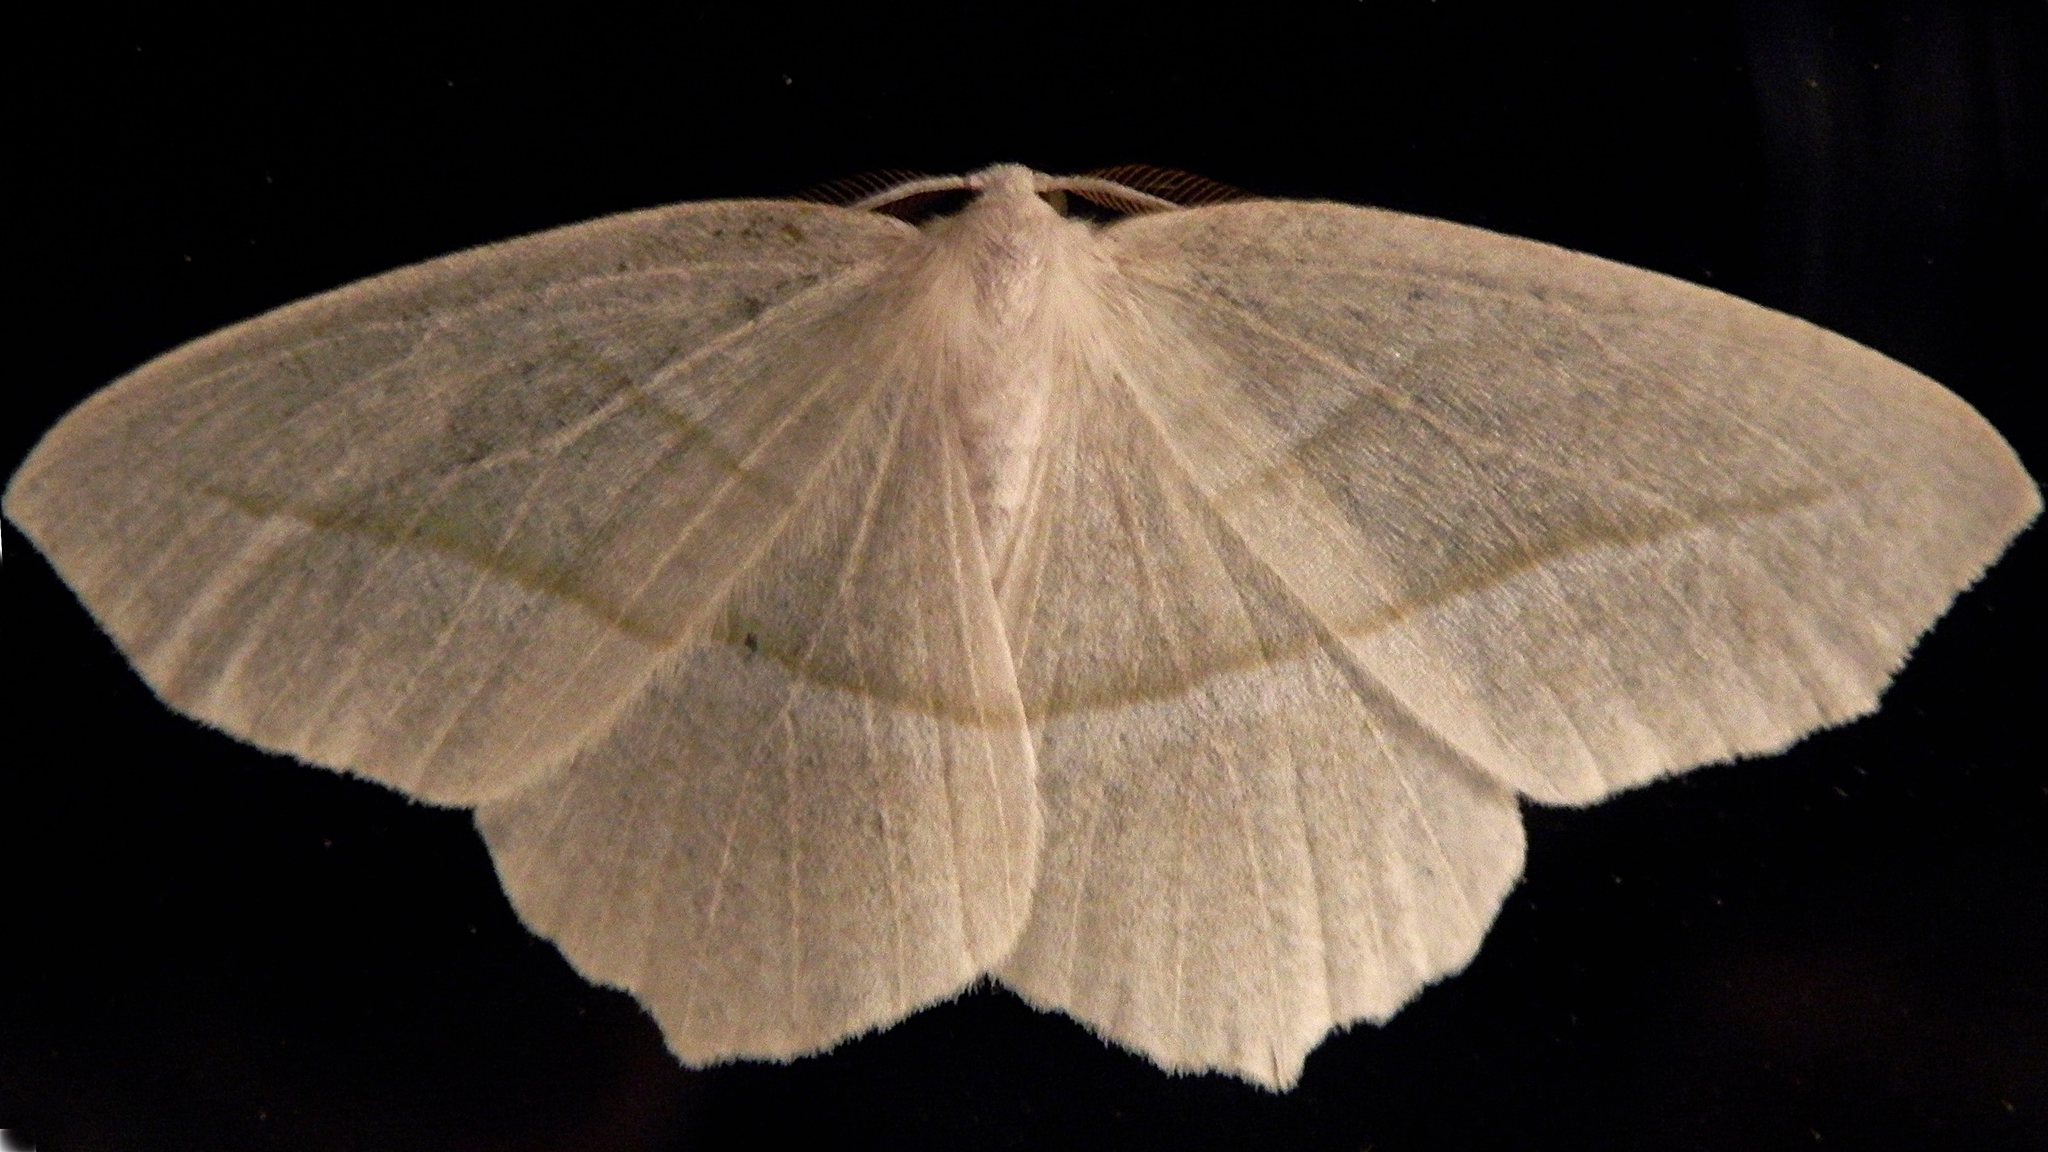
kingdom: Animalia
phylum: Arthropoda
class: Insecta
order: Lepidoptera
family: Geometridae
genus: Campaea
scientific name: Campaea perlata
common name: Fringed looper
